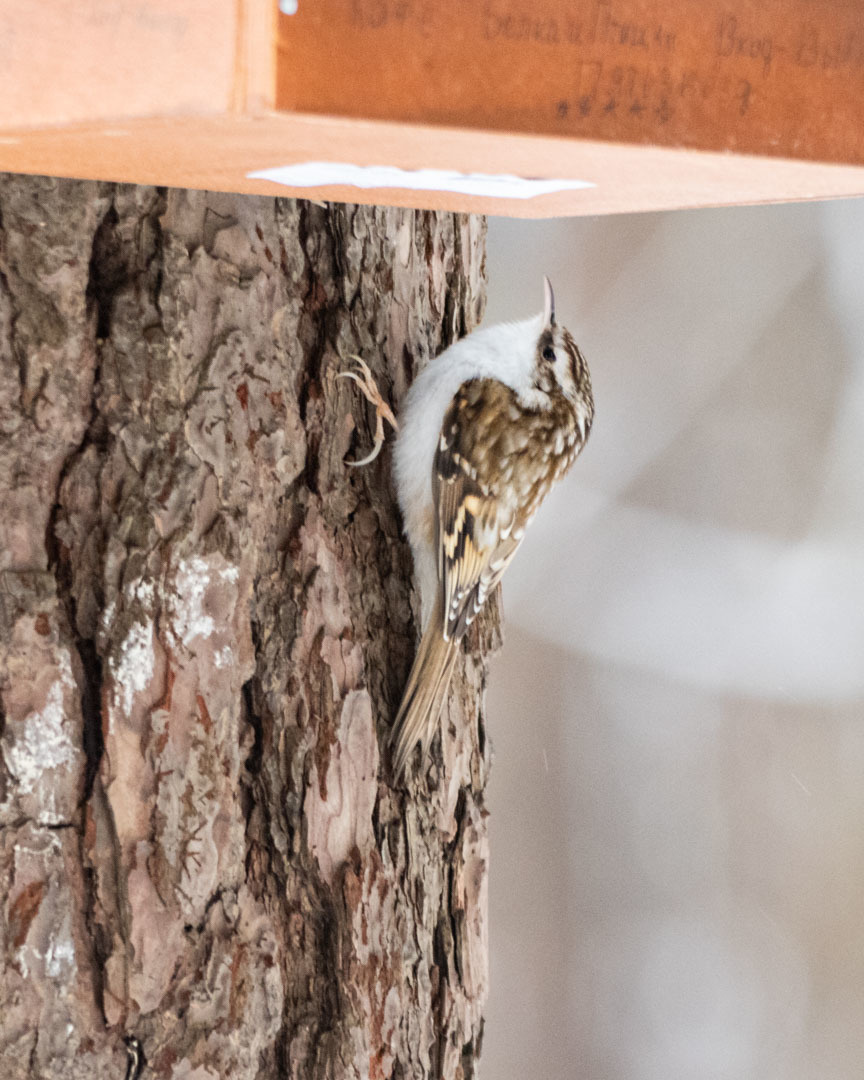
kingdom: Animalia
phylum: Chordata
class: Aves
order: Passeriformes
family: Certhiidae
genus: Certhia
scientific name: Certhia familiaris
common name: Eurasian treecreeper
